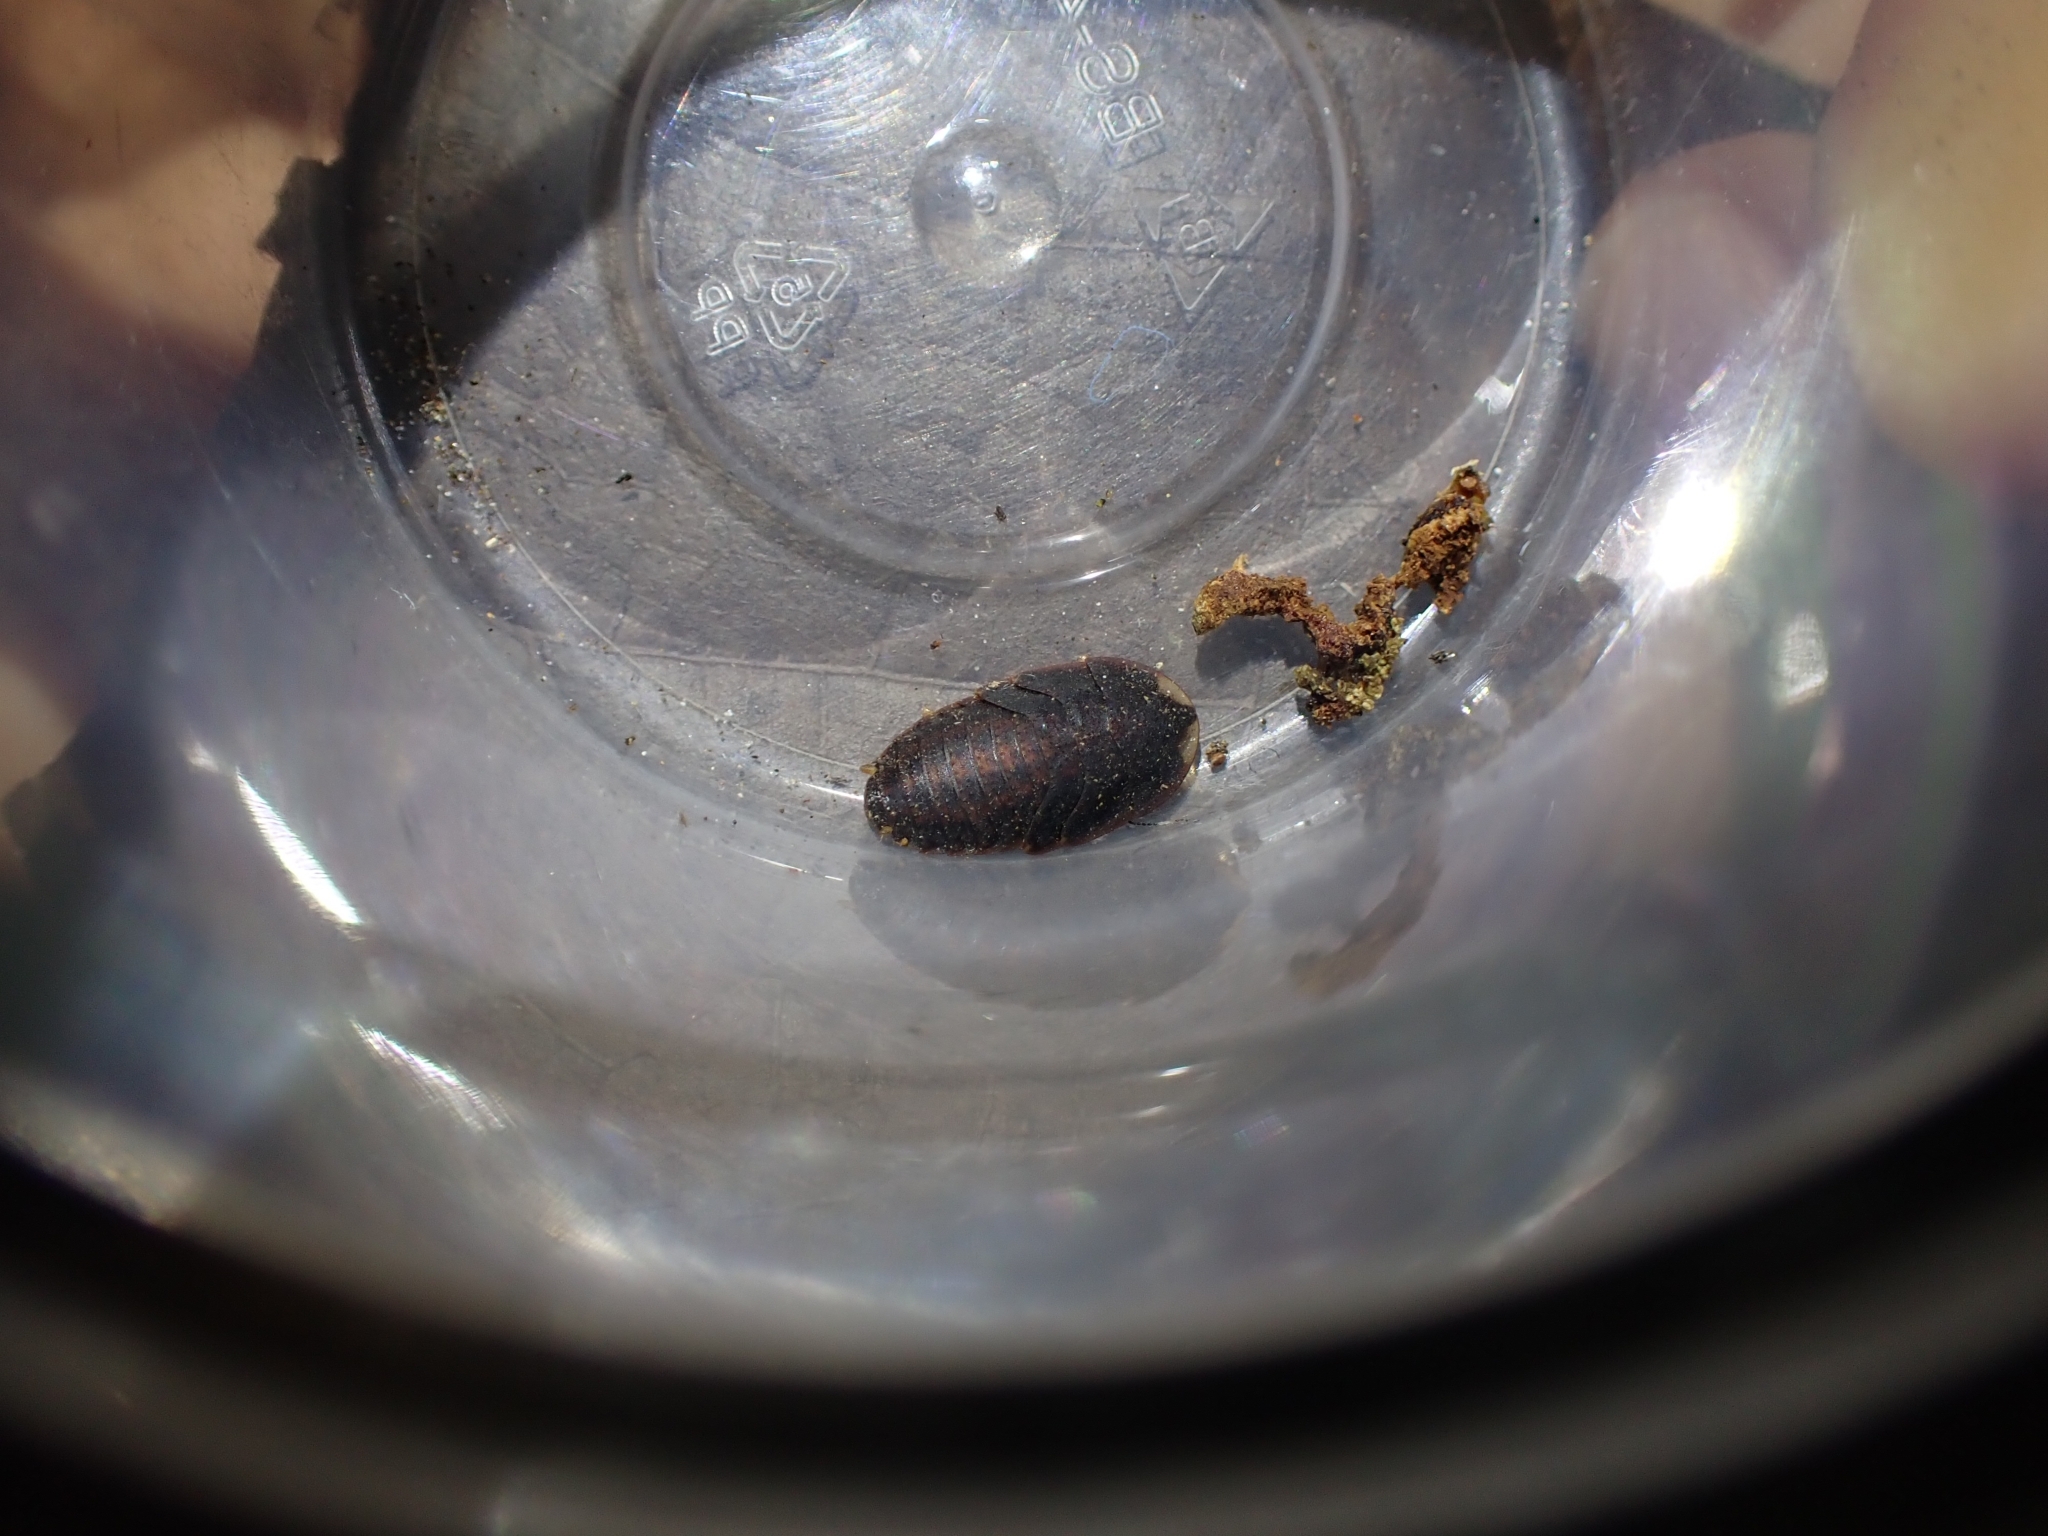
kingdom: Animalia
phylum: Arthropoda
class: Insecta
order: Blattodea
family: Blaberidae
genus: Neolaxta
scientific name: Neolaxta mackerrasae
